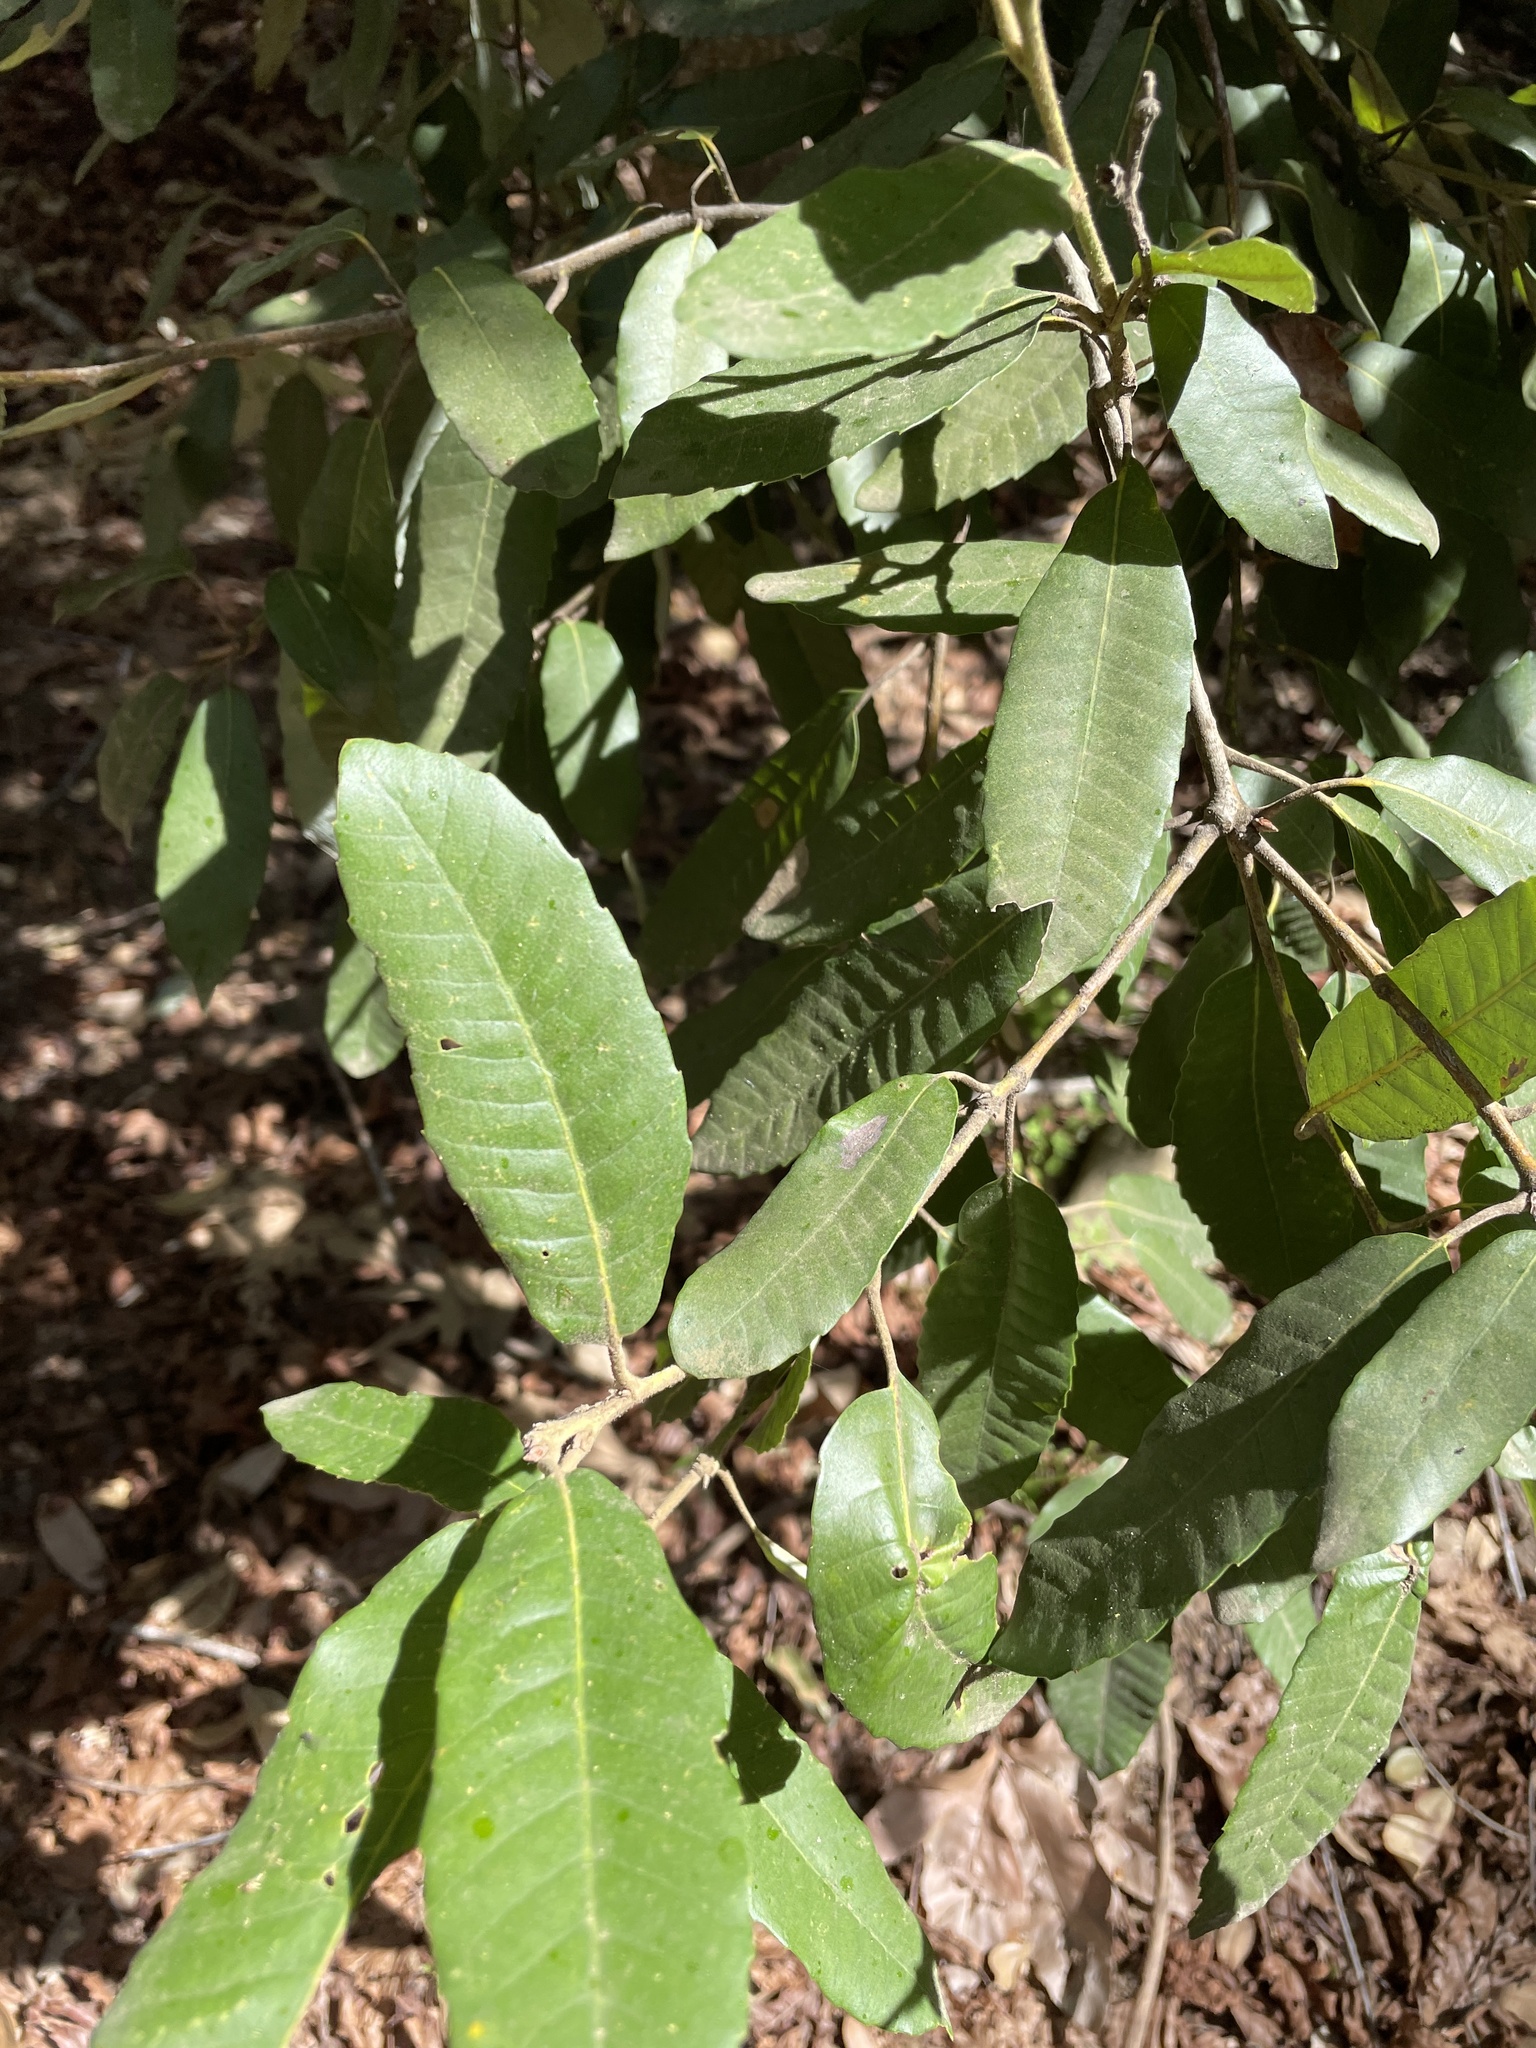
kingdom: Plantae
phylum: Tracheophyta
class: Magnoliopsida
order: Fagales
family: Fagaceae
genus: Notholithocarpus
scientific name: Notholithocarpus densiflorus
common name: Tan bark oak
